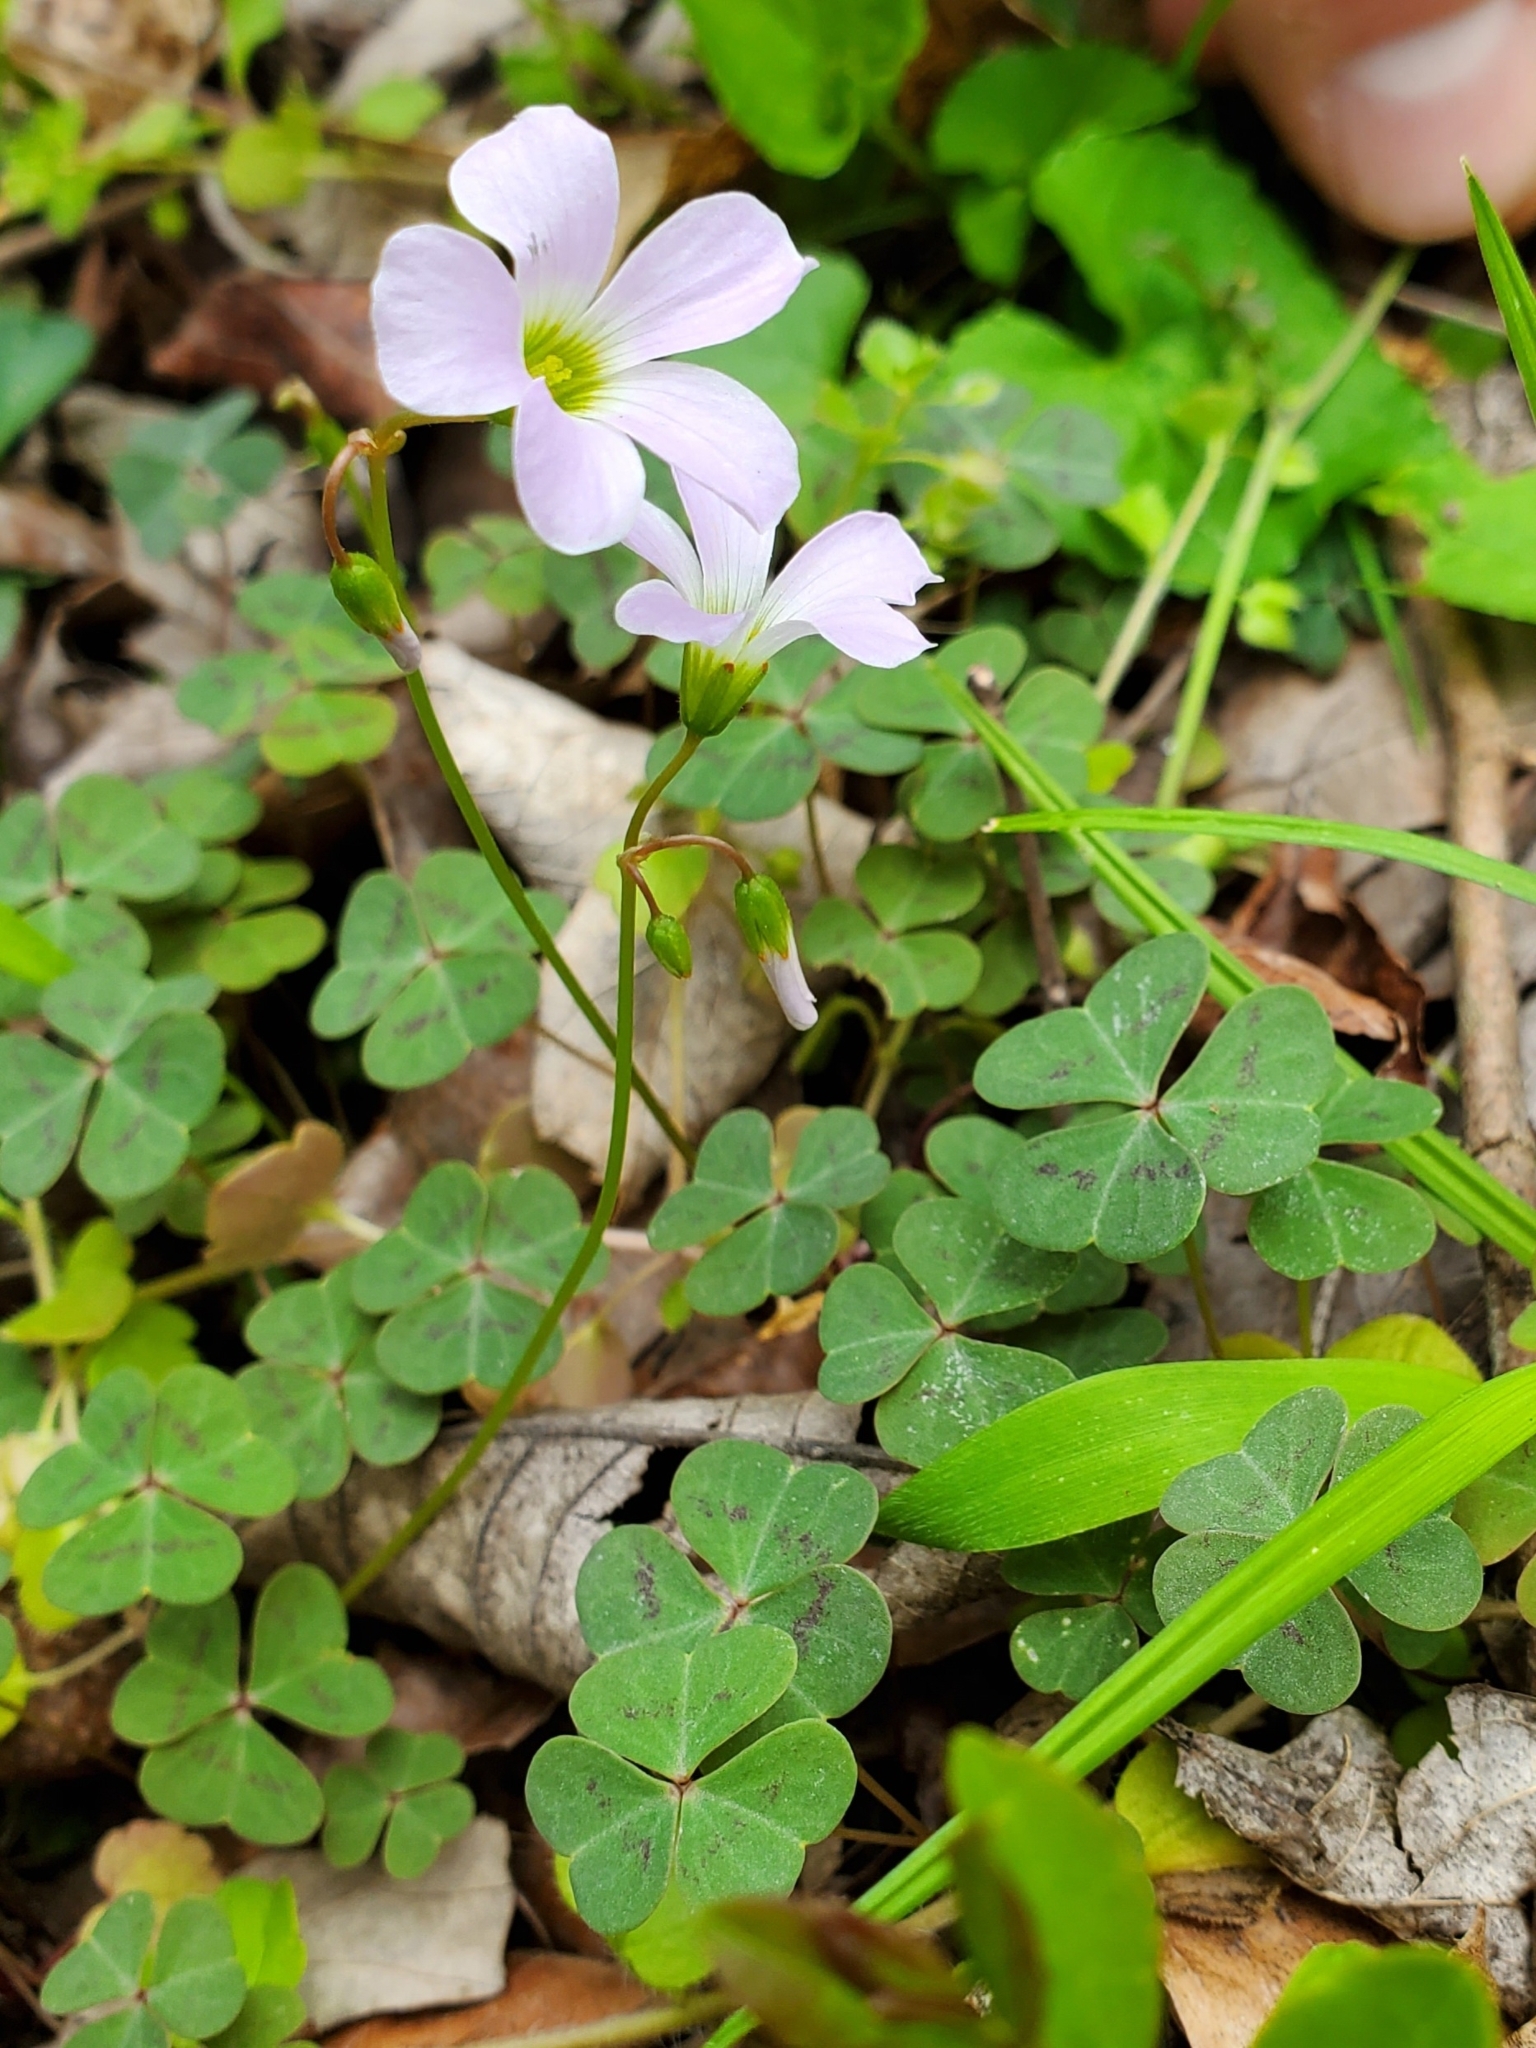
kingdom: Plantae
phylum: Tracheophyta
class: Magnoliopsida
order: Oxalidales
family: Oxalidaceae
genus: Oxalis
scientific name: Oxalis violacea
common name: Violet wood-sorrel
